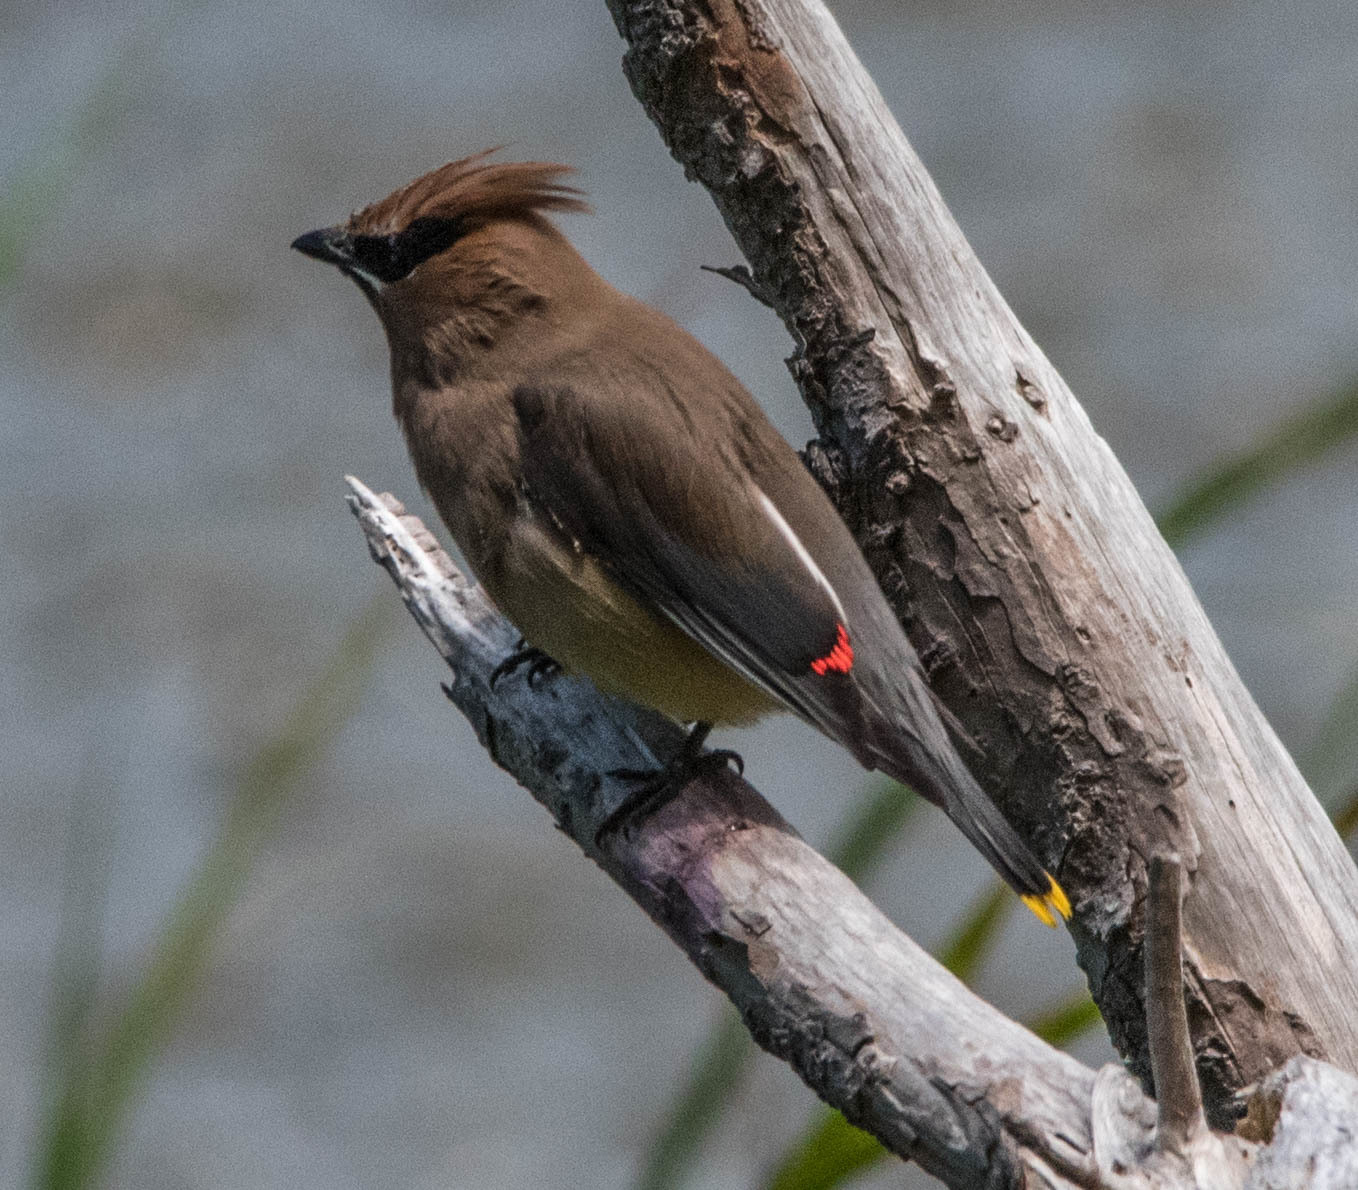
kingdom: Animalia
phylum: Chordata
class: Aves
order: Passeriformes
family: Bombycillidae
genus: Bombycilla
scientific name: Bombycilla cedrorum
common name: Cedar waxwing
